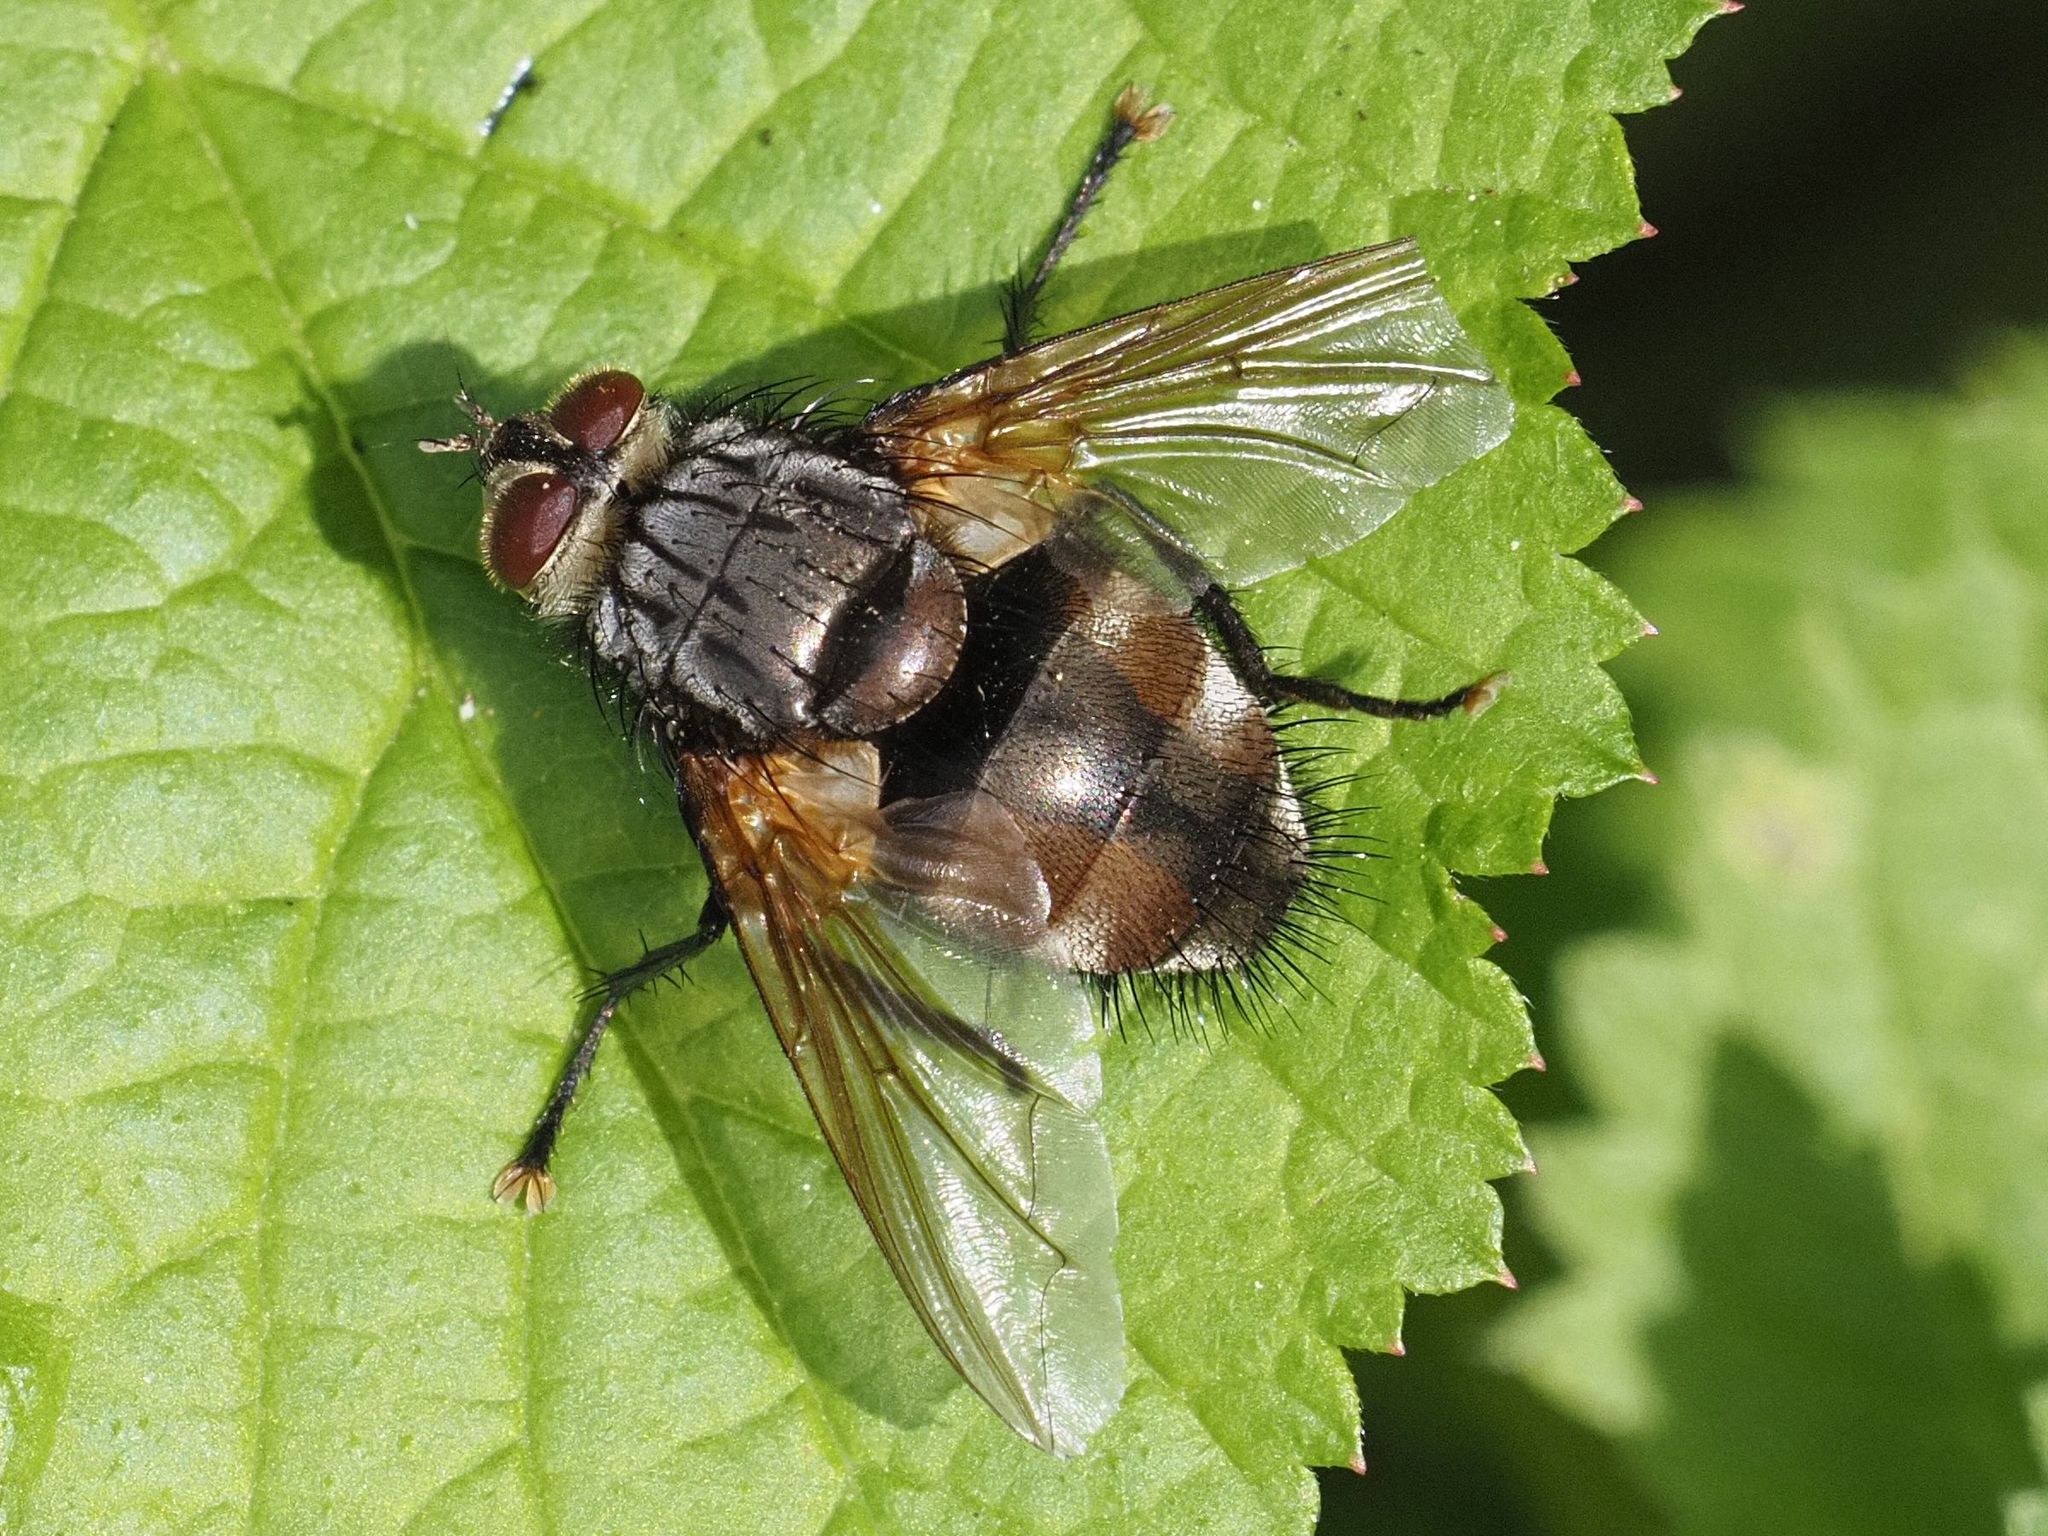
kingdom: Animalia
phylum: Arthropoda
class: Insecta
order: Diptera
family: Tachinidae
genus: Nemoraea
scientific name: Nemoraea pellucida
